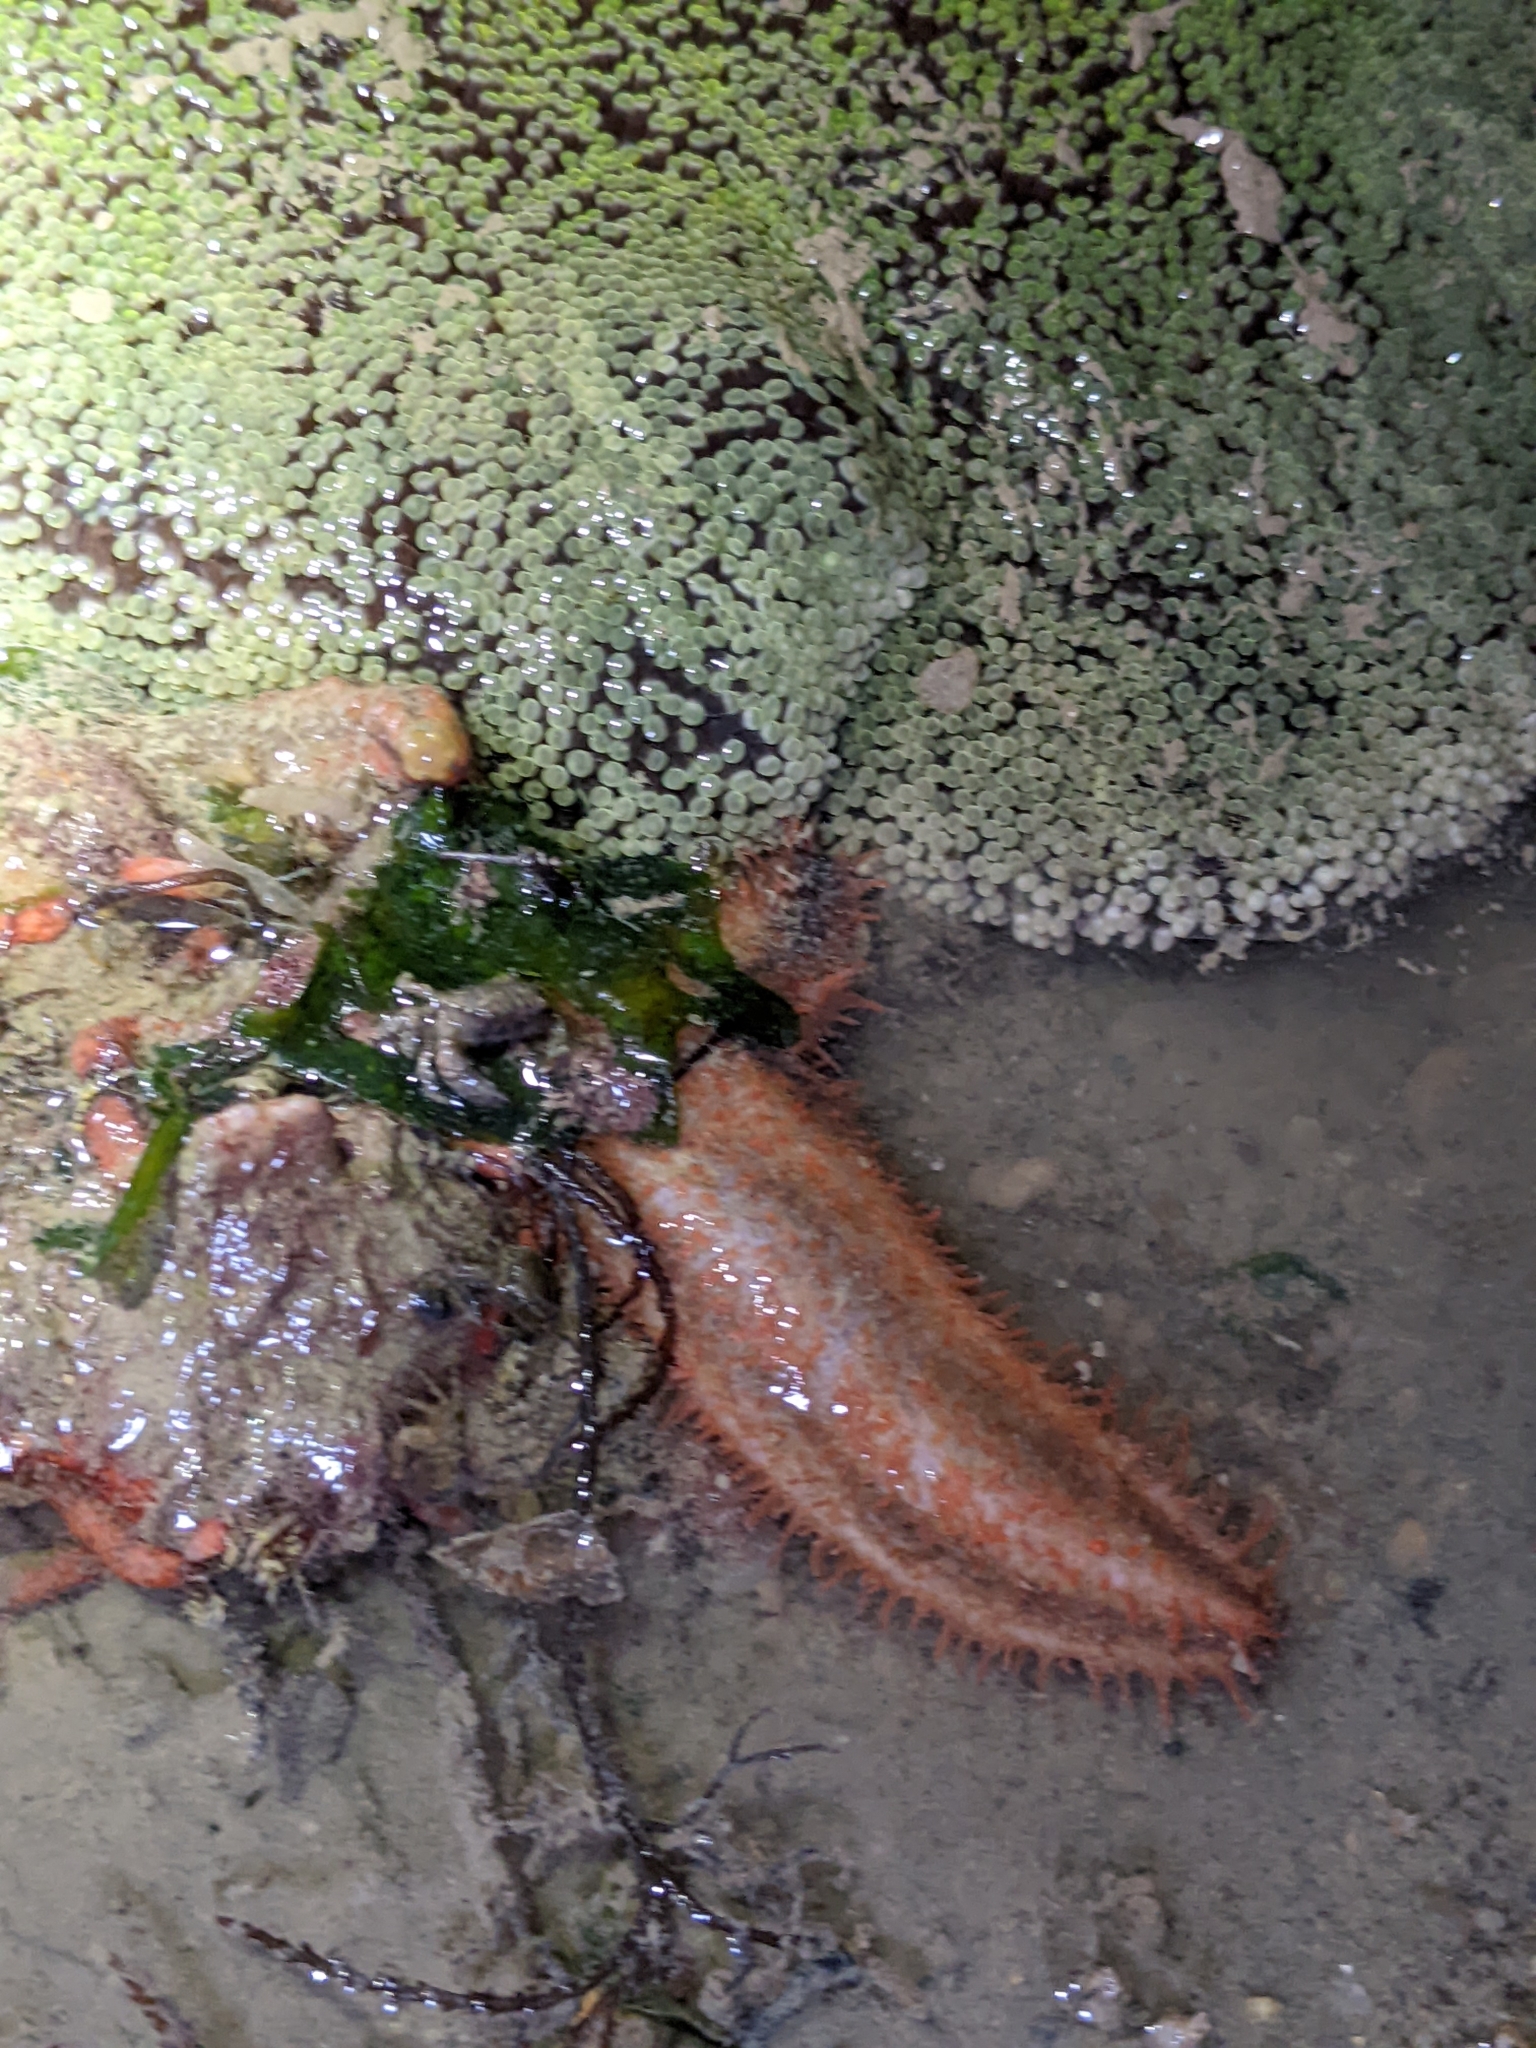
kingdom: Animalia
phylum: Echinodermata
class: Holothuroidea
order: Dendrochirotida
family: Cucumariidae
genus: Mensamaria
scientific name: Mensamaria intercedens
